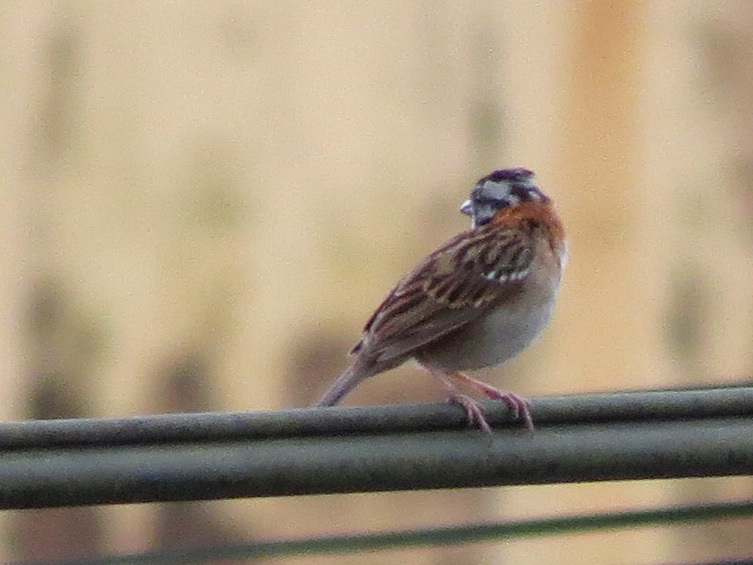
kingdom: Animalia
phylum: Chordata
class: Aves
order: Passeriformes
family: Passerellidae
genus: Zonotrichia
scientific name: Zonotrichia capensis
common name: Rufous-collared sparrow
